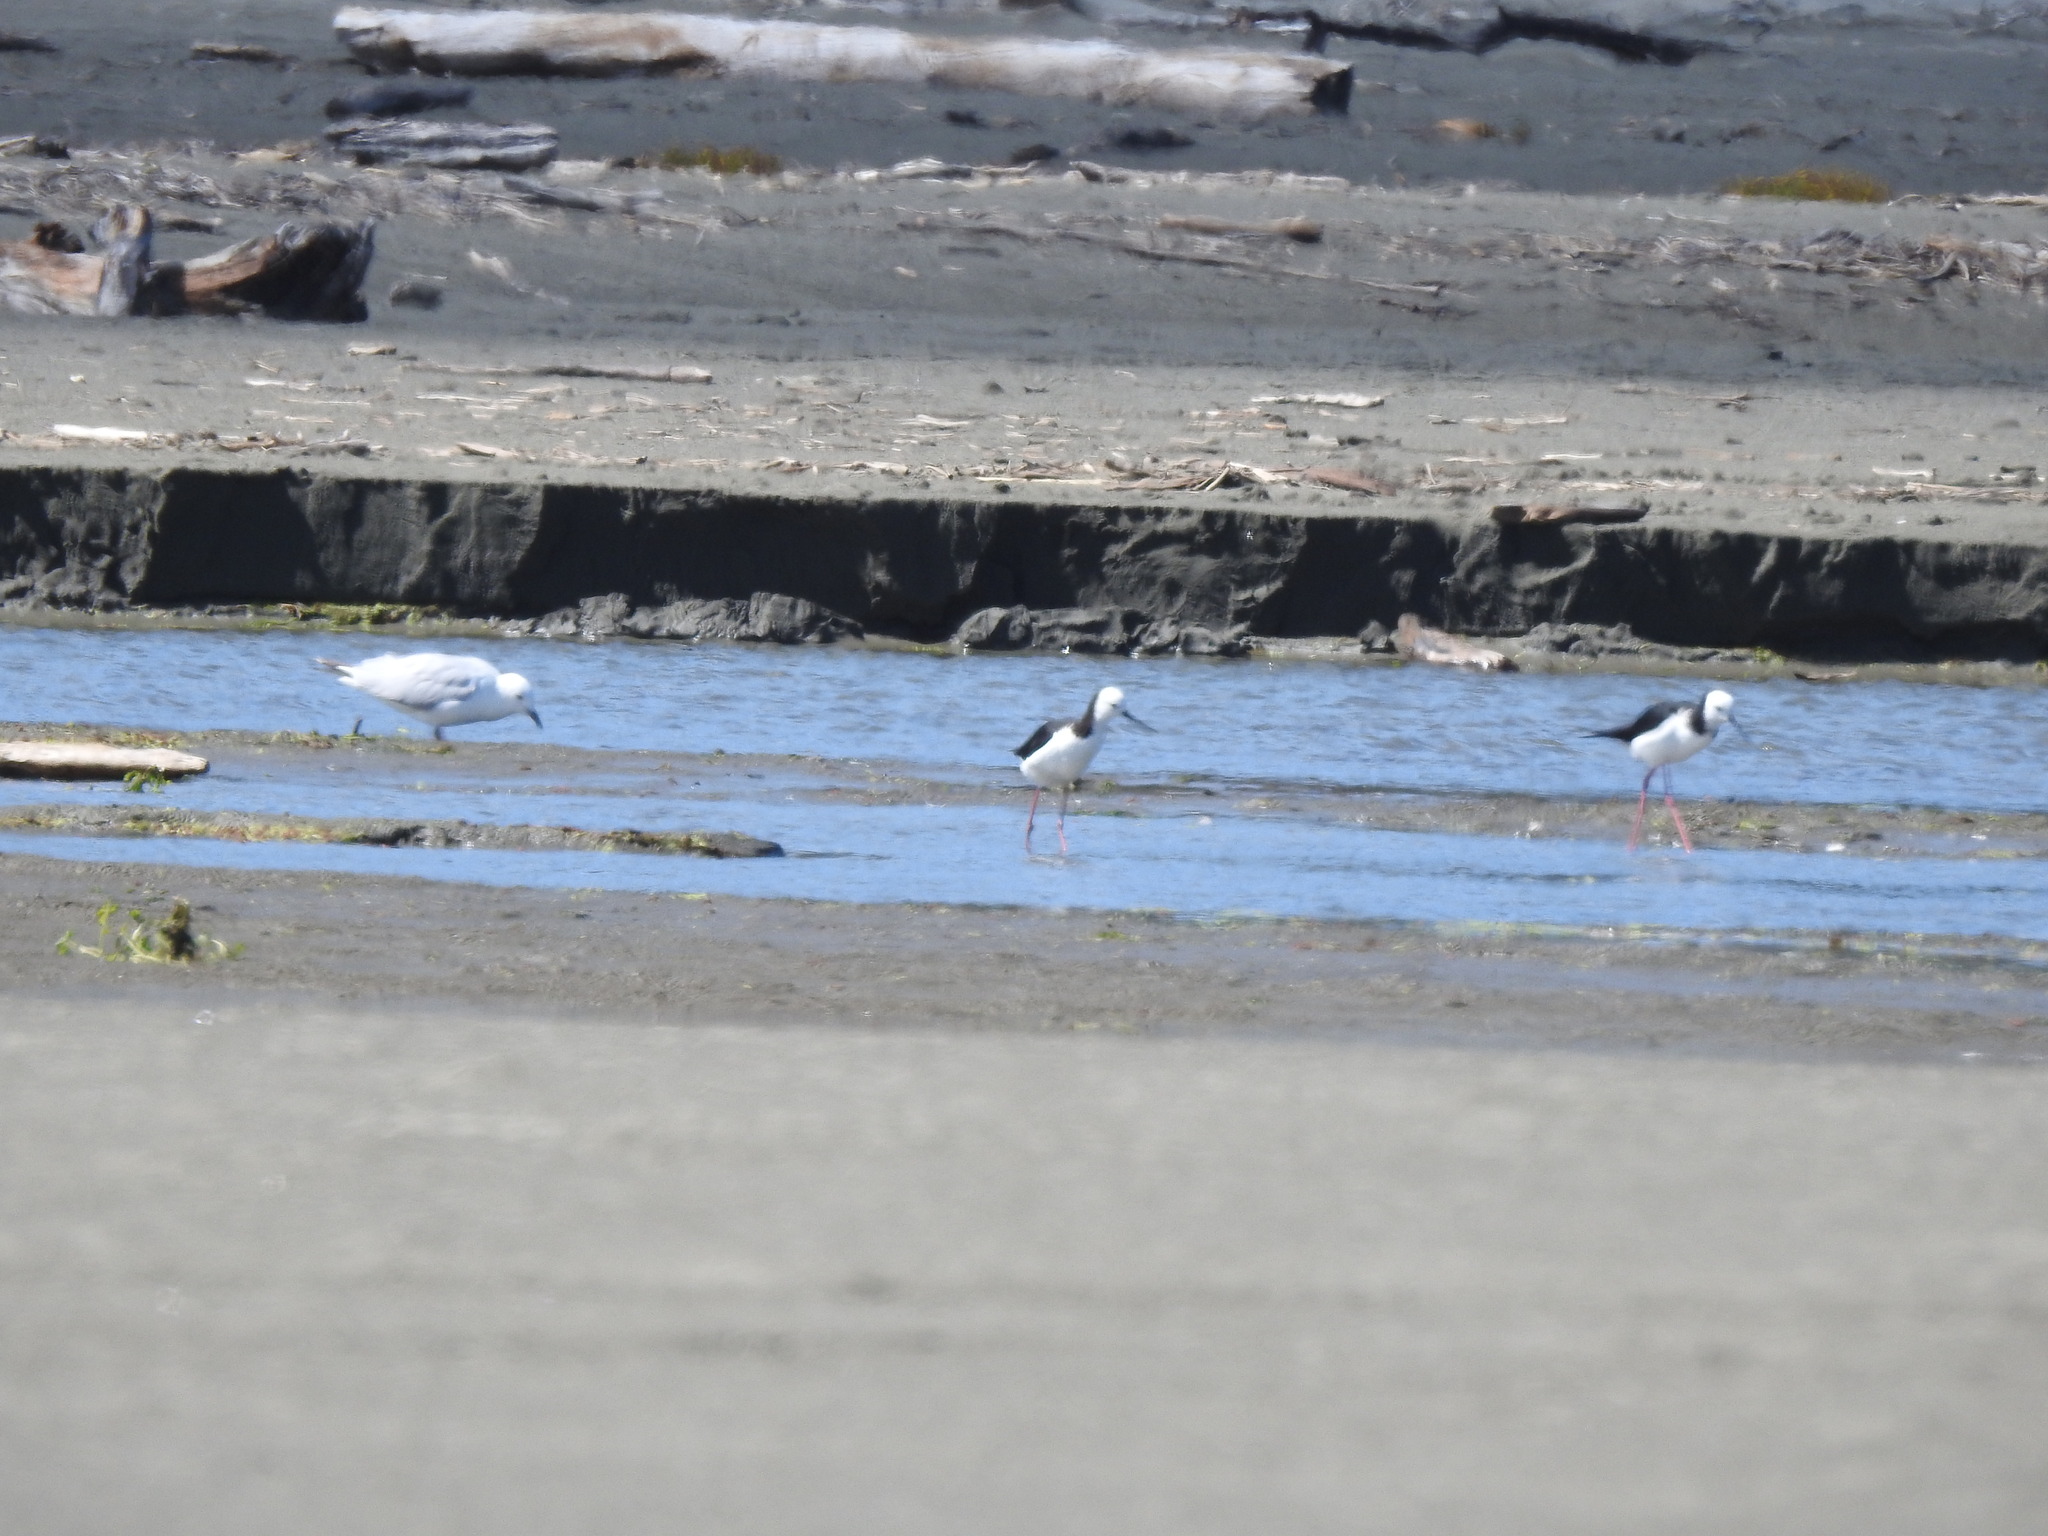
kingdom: Animalia
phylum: Chordata
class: Aves
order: Charadriiformes
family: Recurvirostridae
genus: Himantopus
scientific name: Himantopus leucocephalus
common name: White-headed stilt
